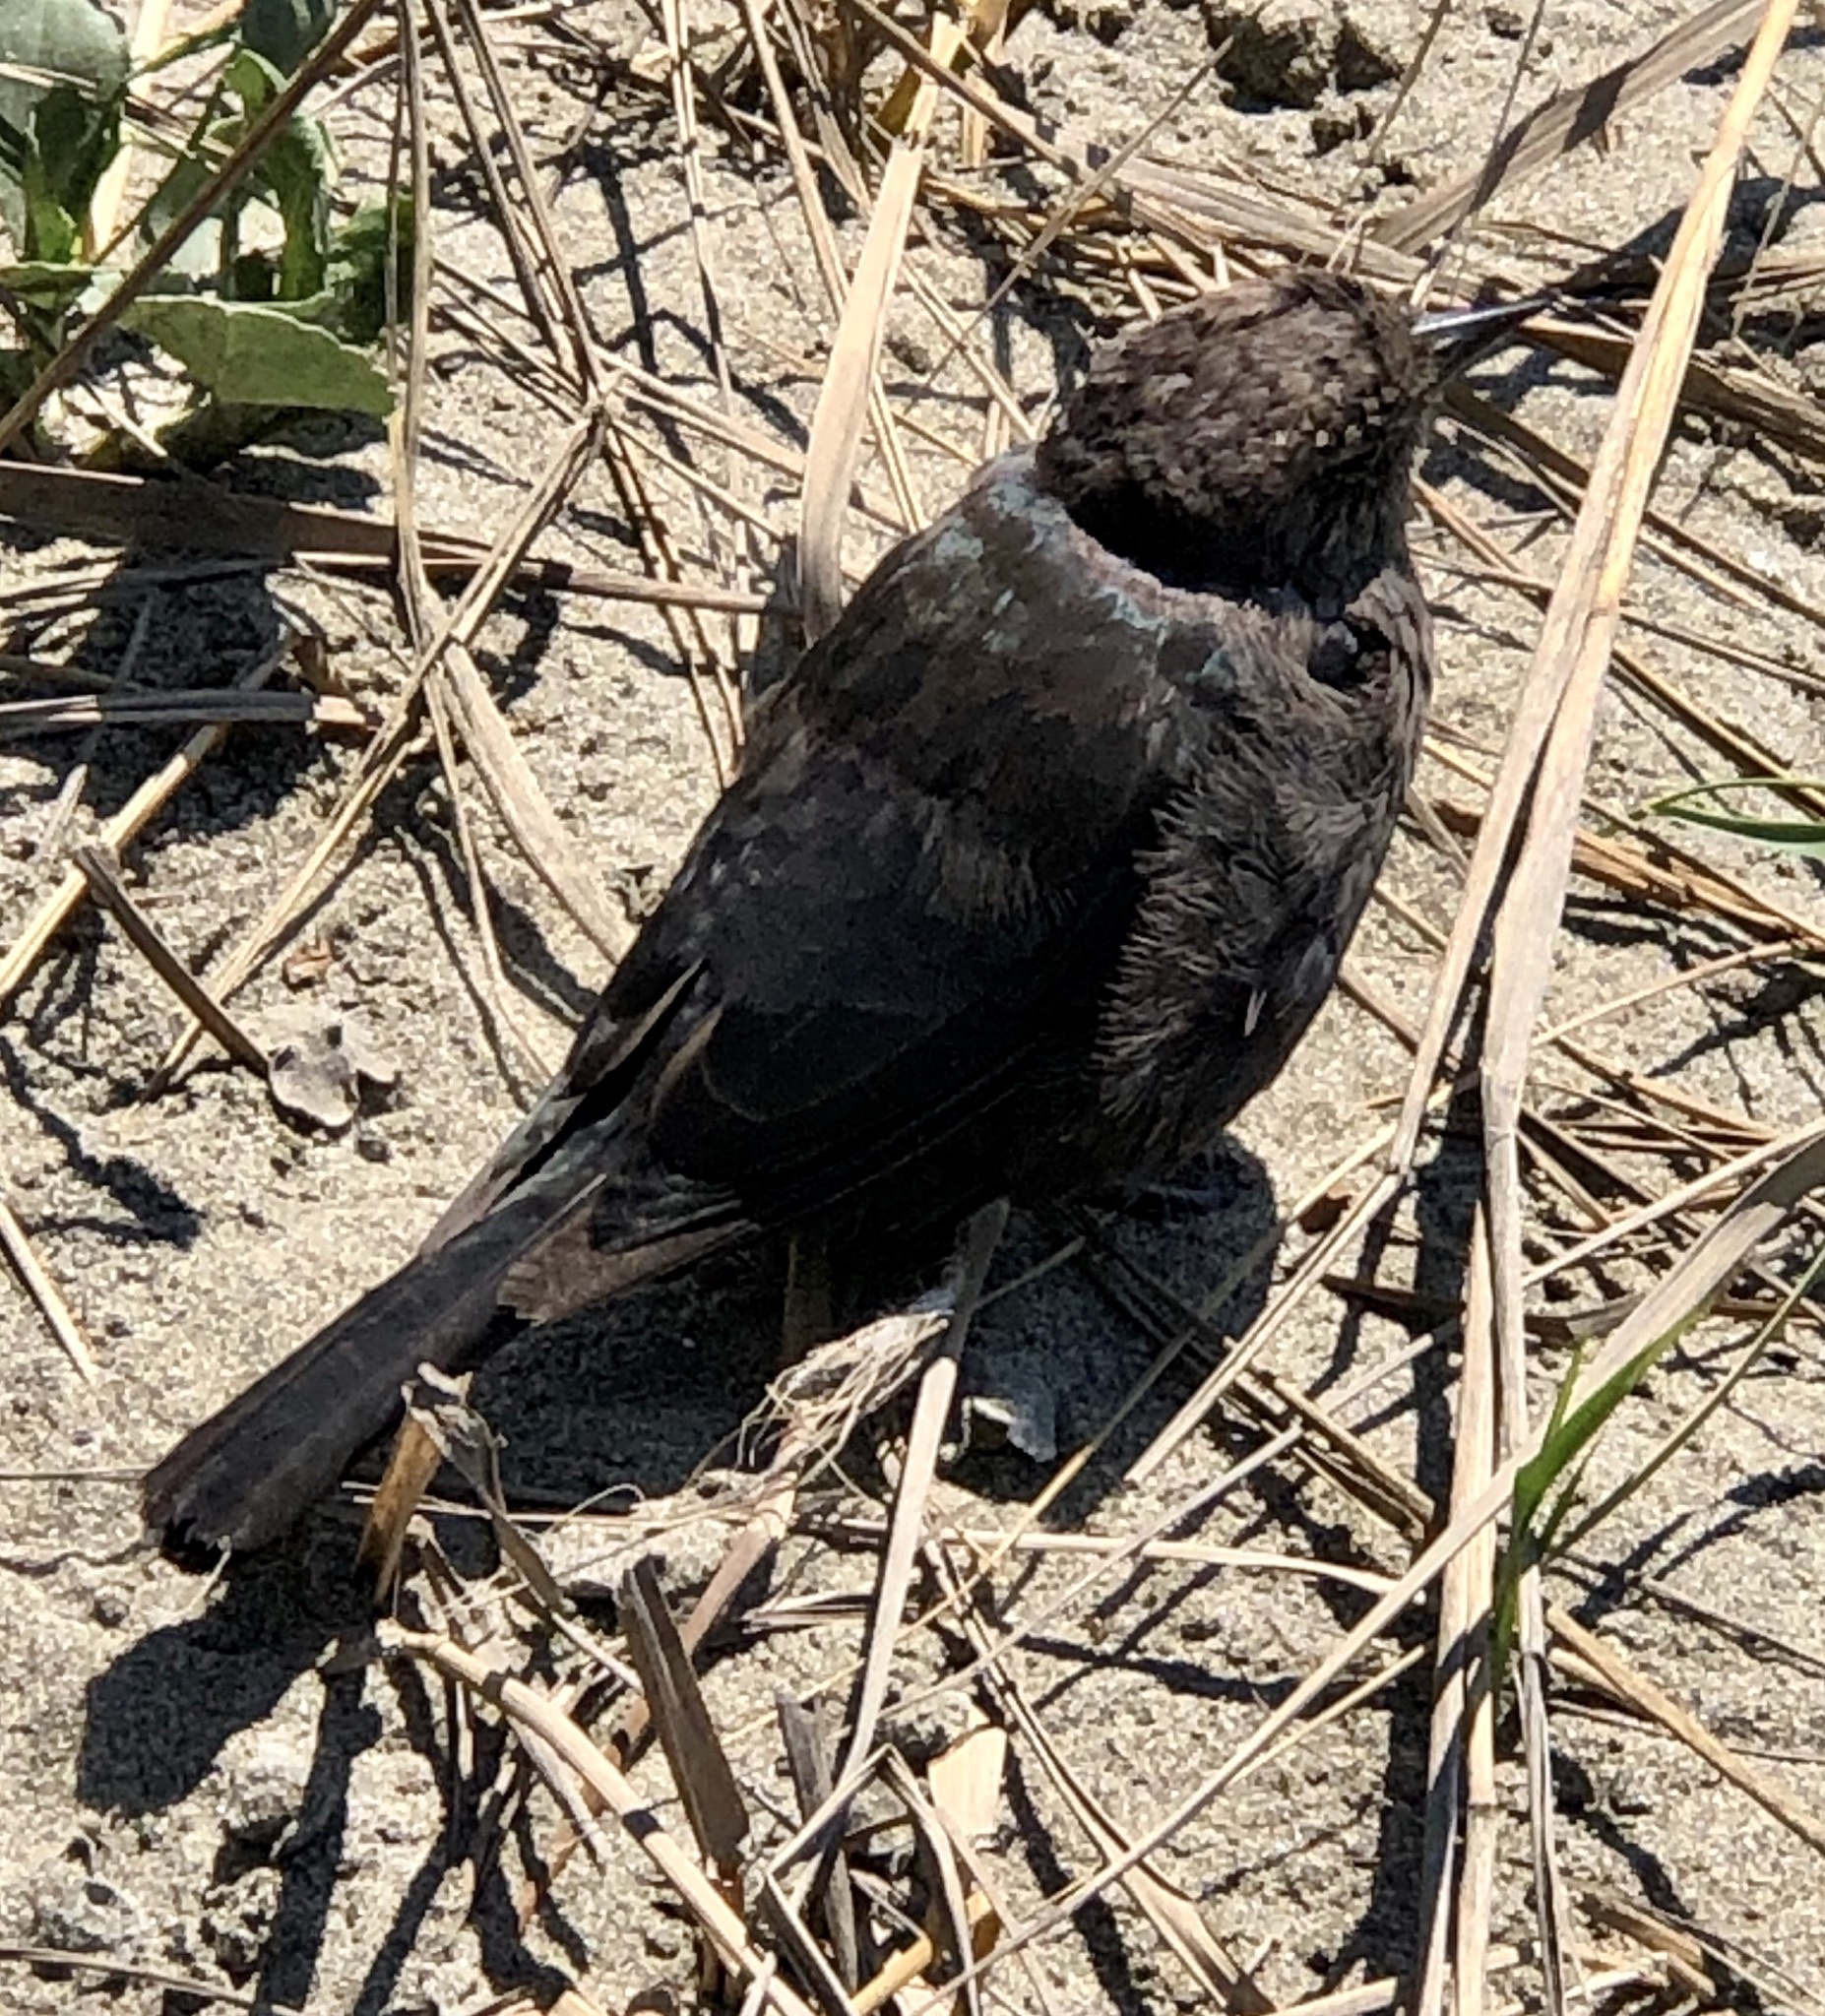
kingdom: Animalia
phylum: Chordata
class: Aves
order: Passeriformes
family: Icteridae
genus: Euphagus
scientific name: Euphagus cyanocephalus
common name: Brewer's blackbird
